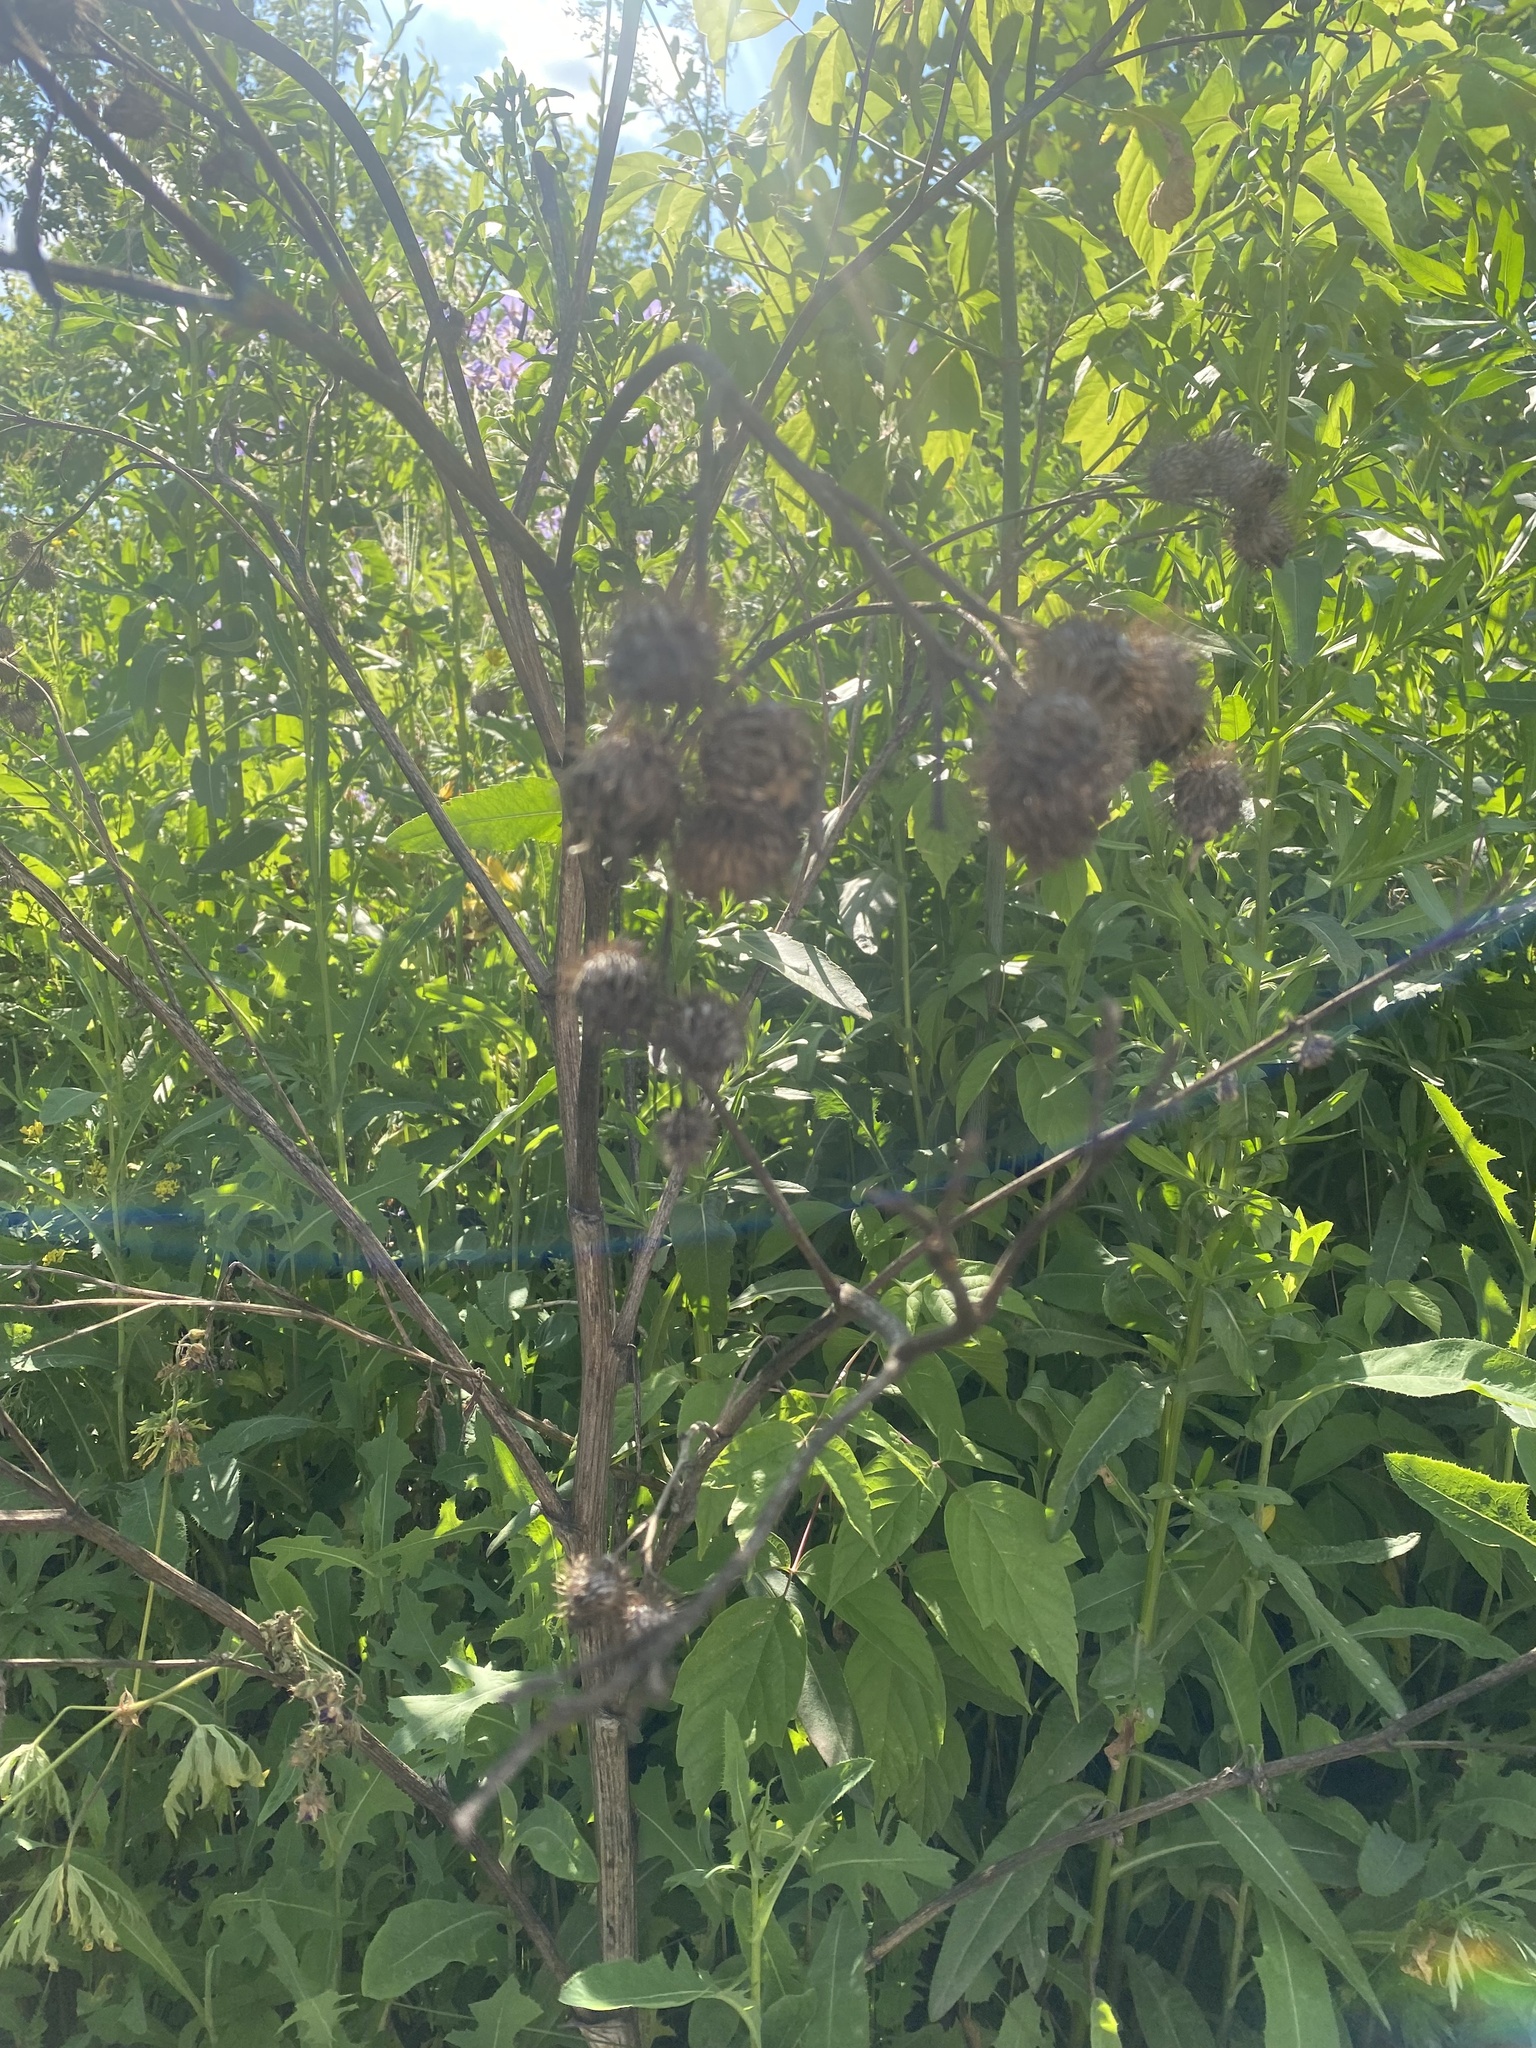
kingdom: Plantae
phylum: Tracheophyta
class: Magnoliopsida
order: Asterales
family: Asteraceae
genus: Arctium
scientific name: Arctium tomentosum
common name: Woolly burdock
